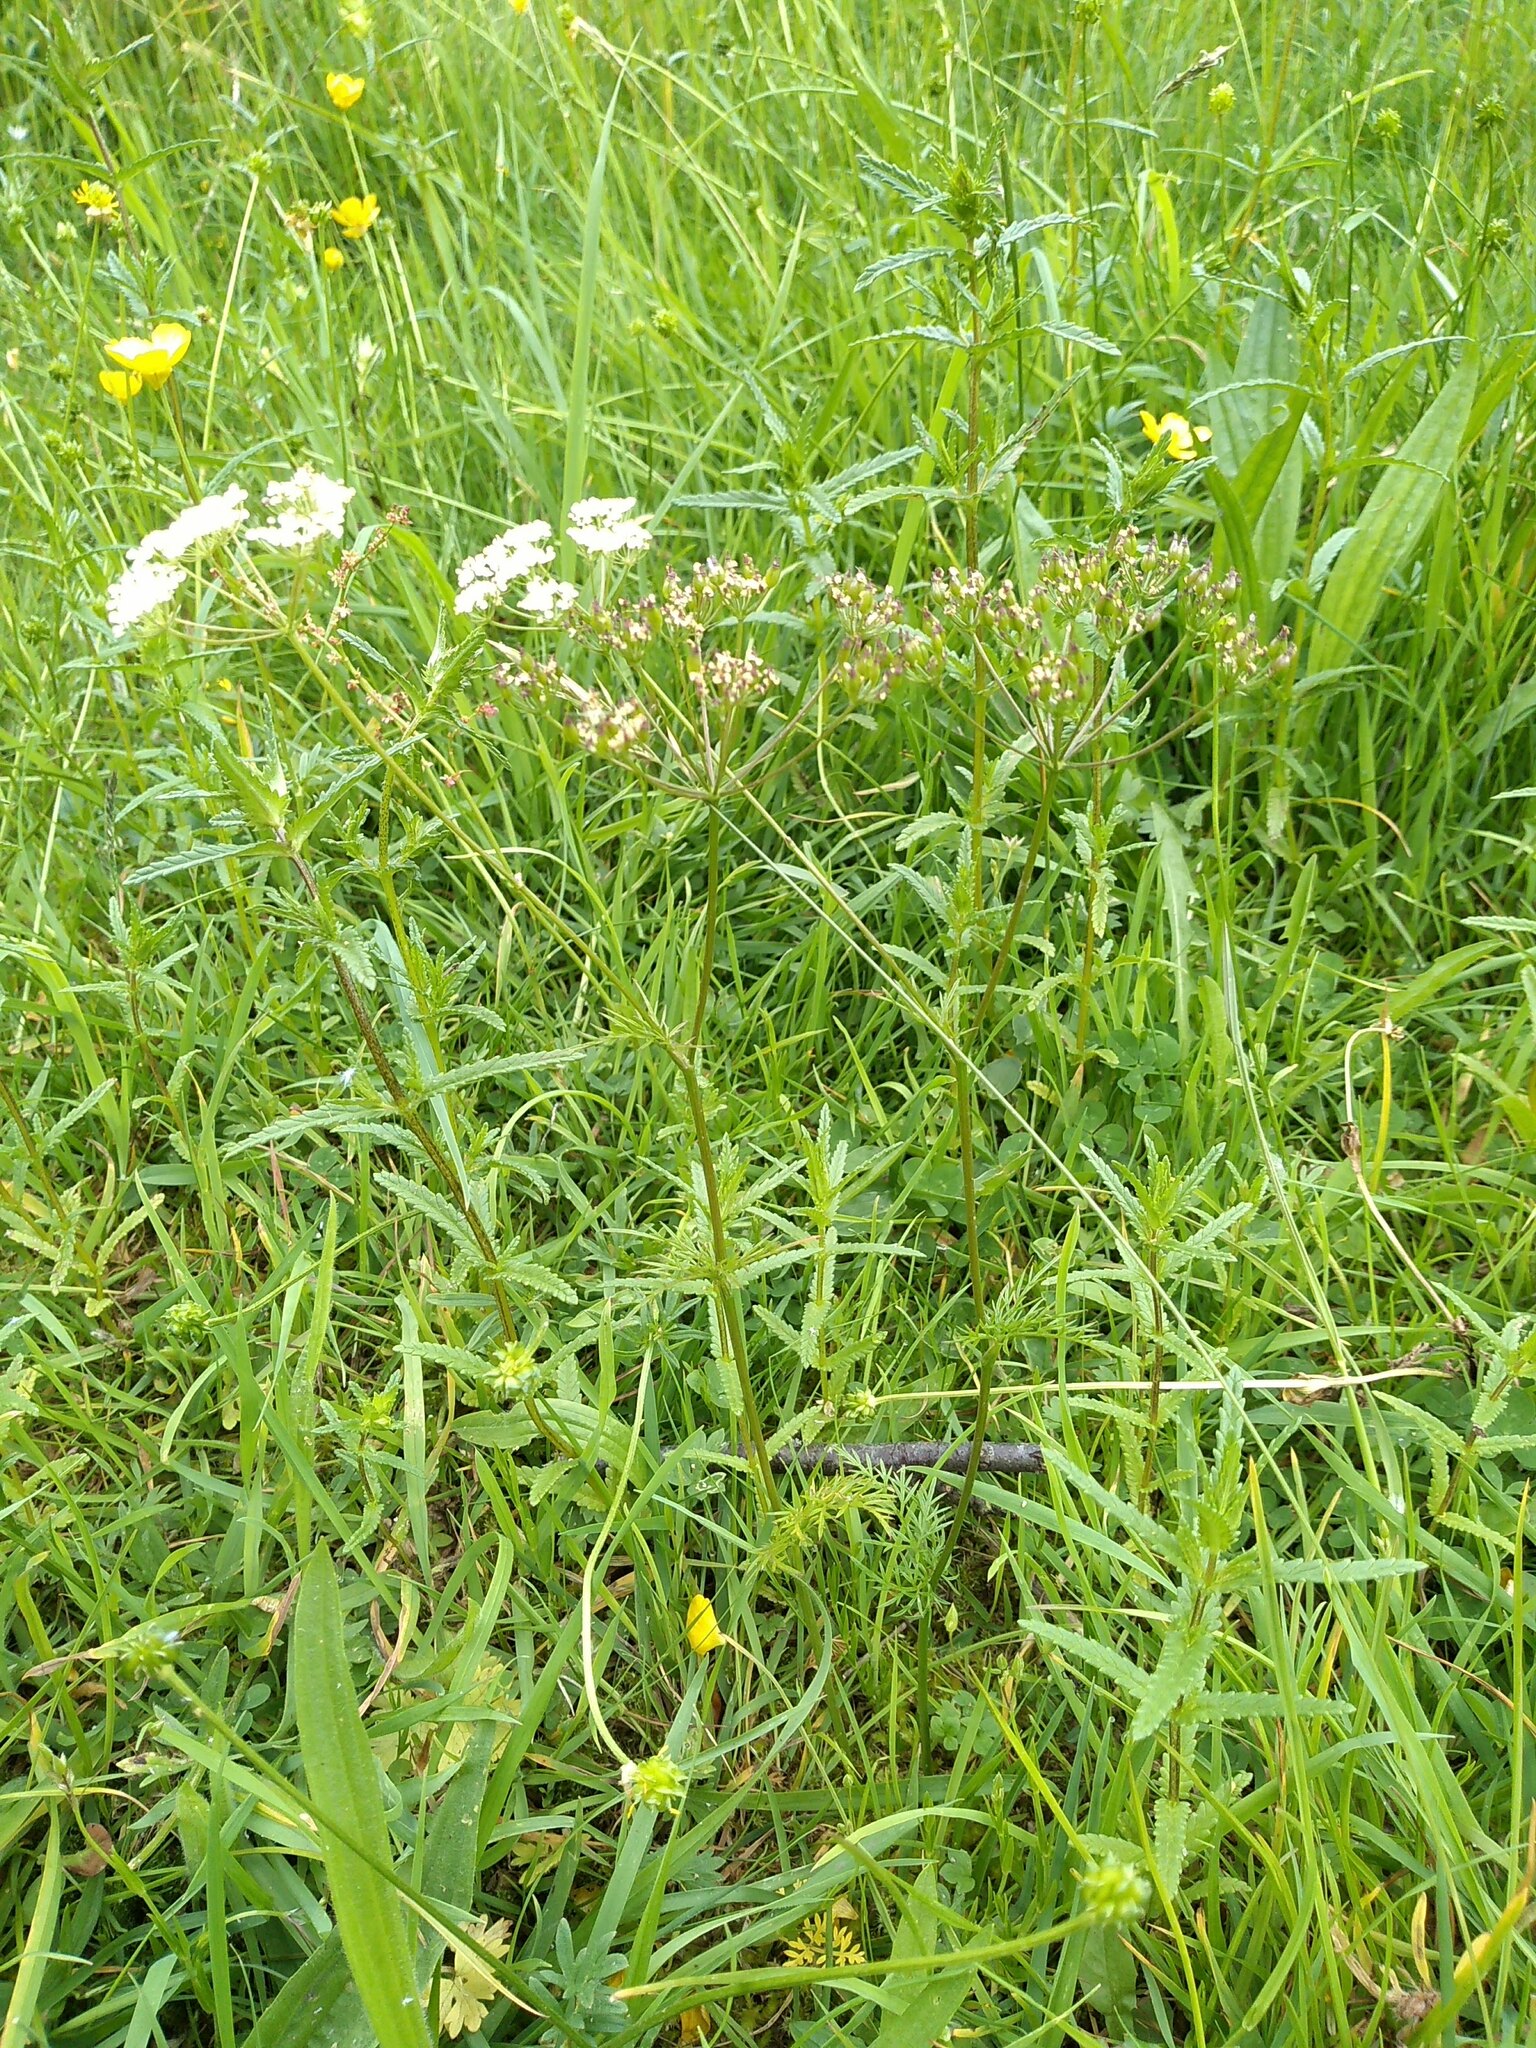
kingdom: Plantae
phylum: Tracheophyta
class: Magnoliopsida
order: Apiales
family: Apiaceae
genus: Conopodium
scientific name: Conopodium majus
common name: Pignut
